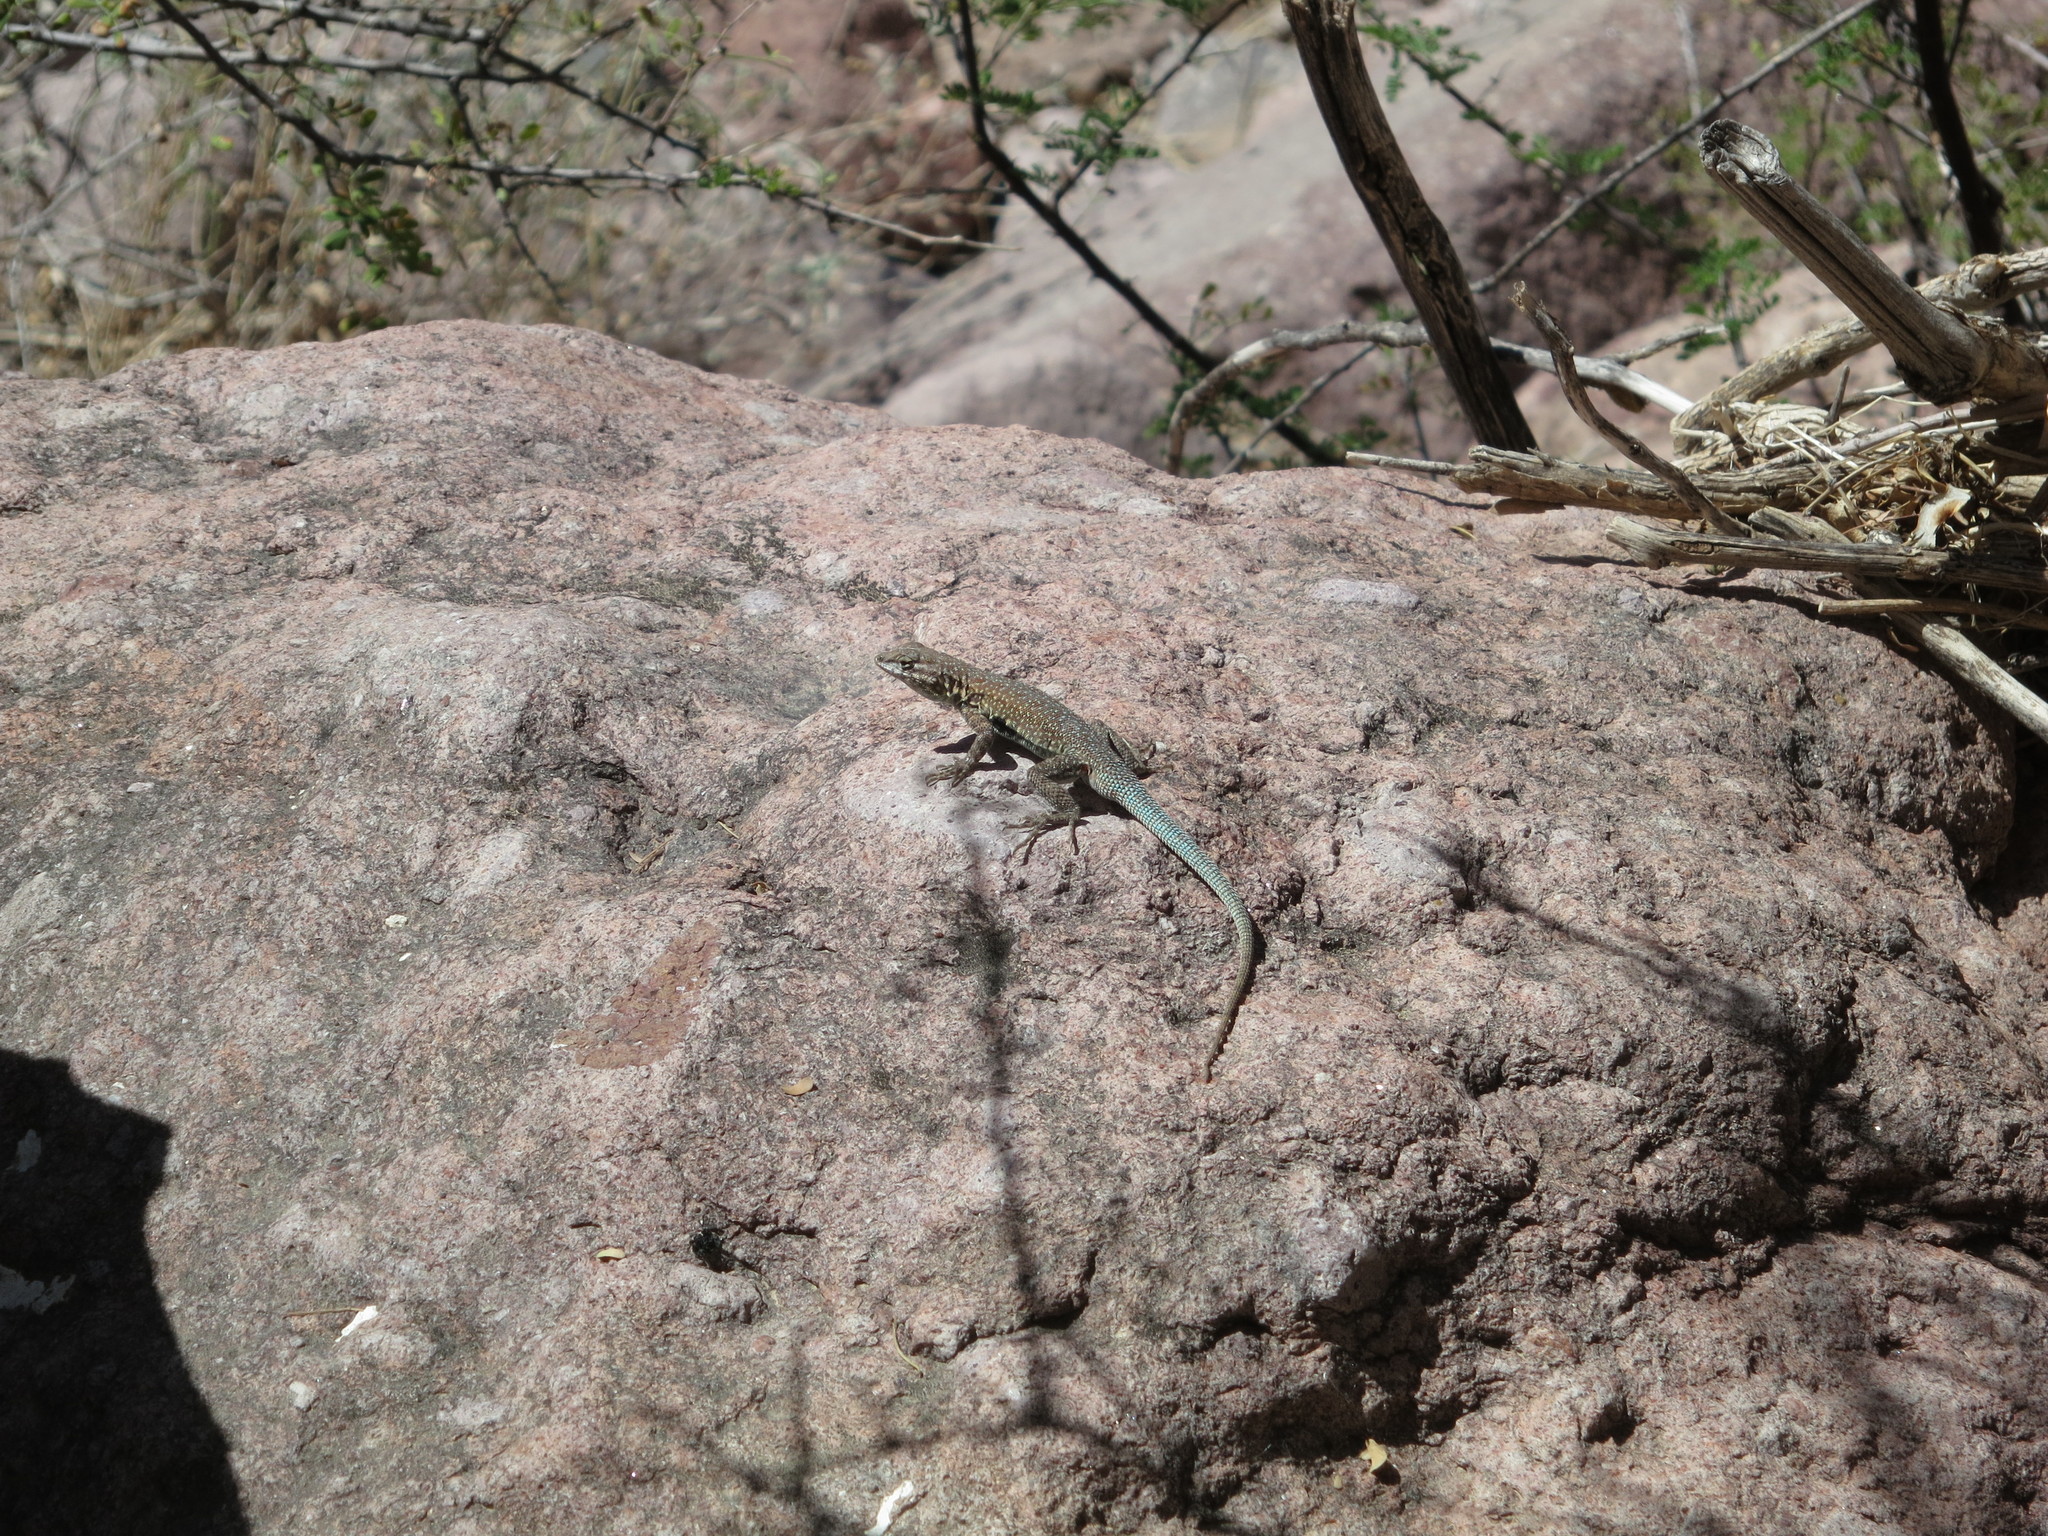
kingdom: Animalia
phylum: Chordata
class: Squamata
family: Phrynosomatidae
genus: Uta
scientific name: Uta stansburiana
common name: Side-blotched lizard
